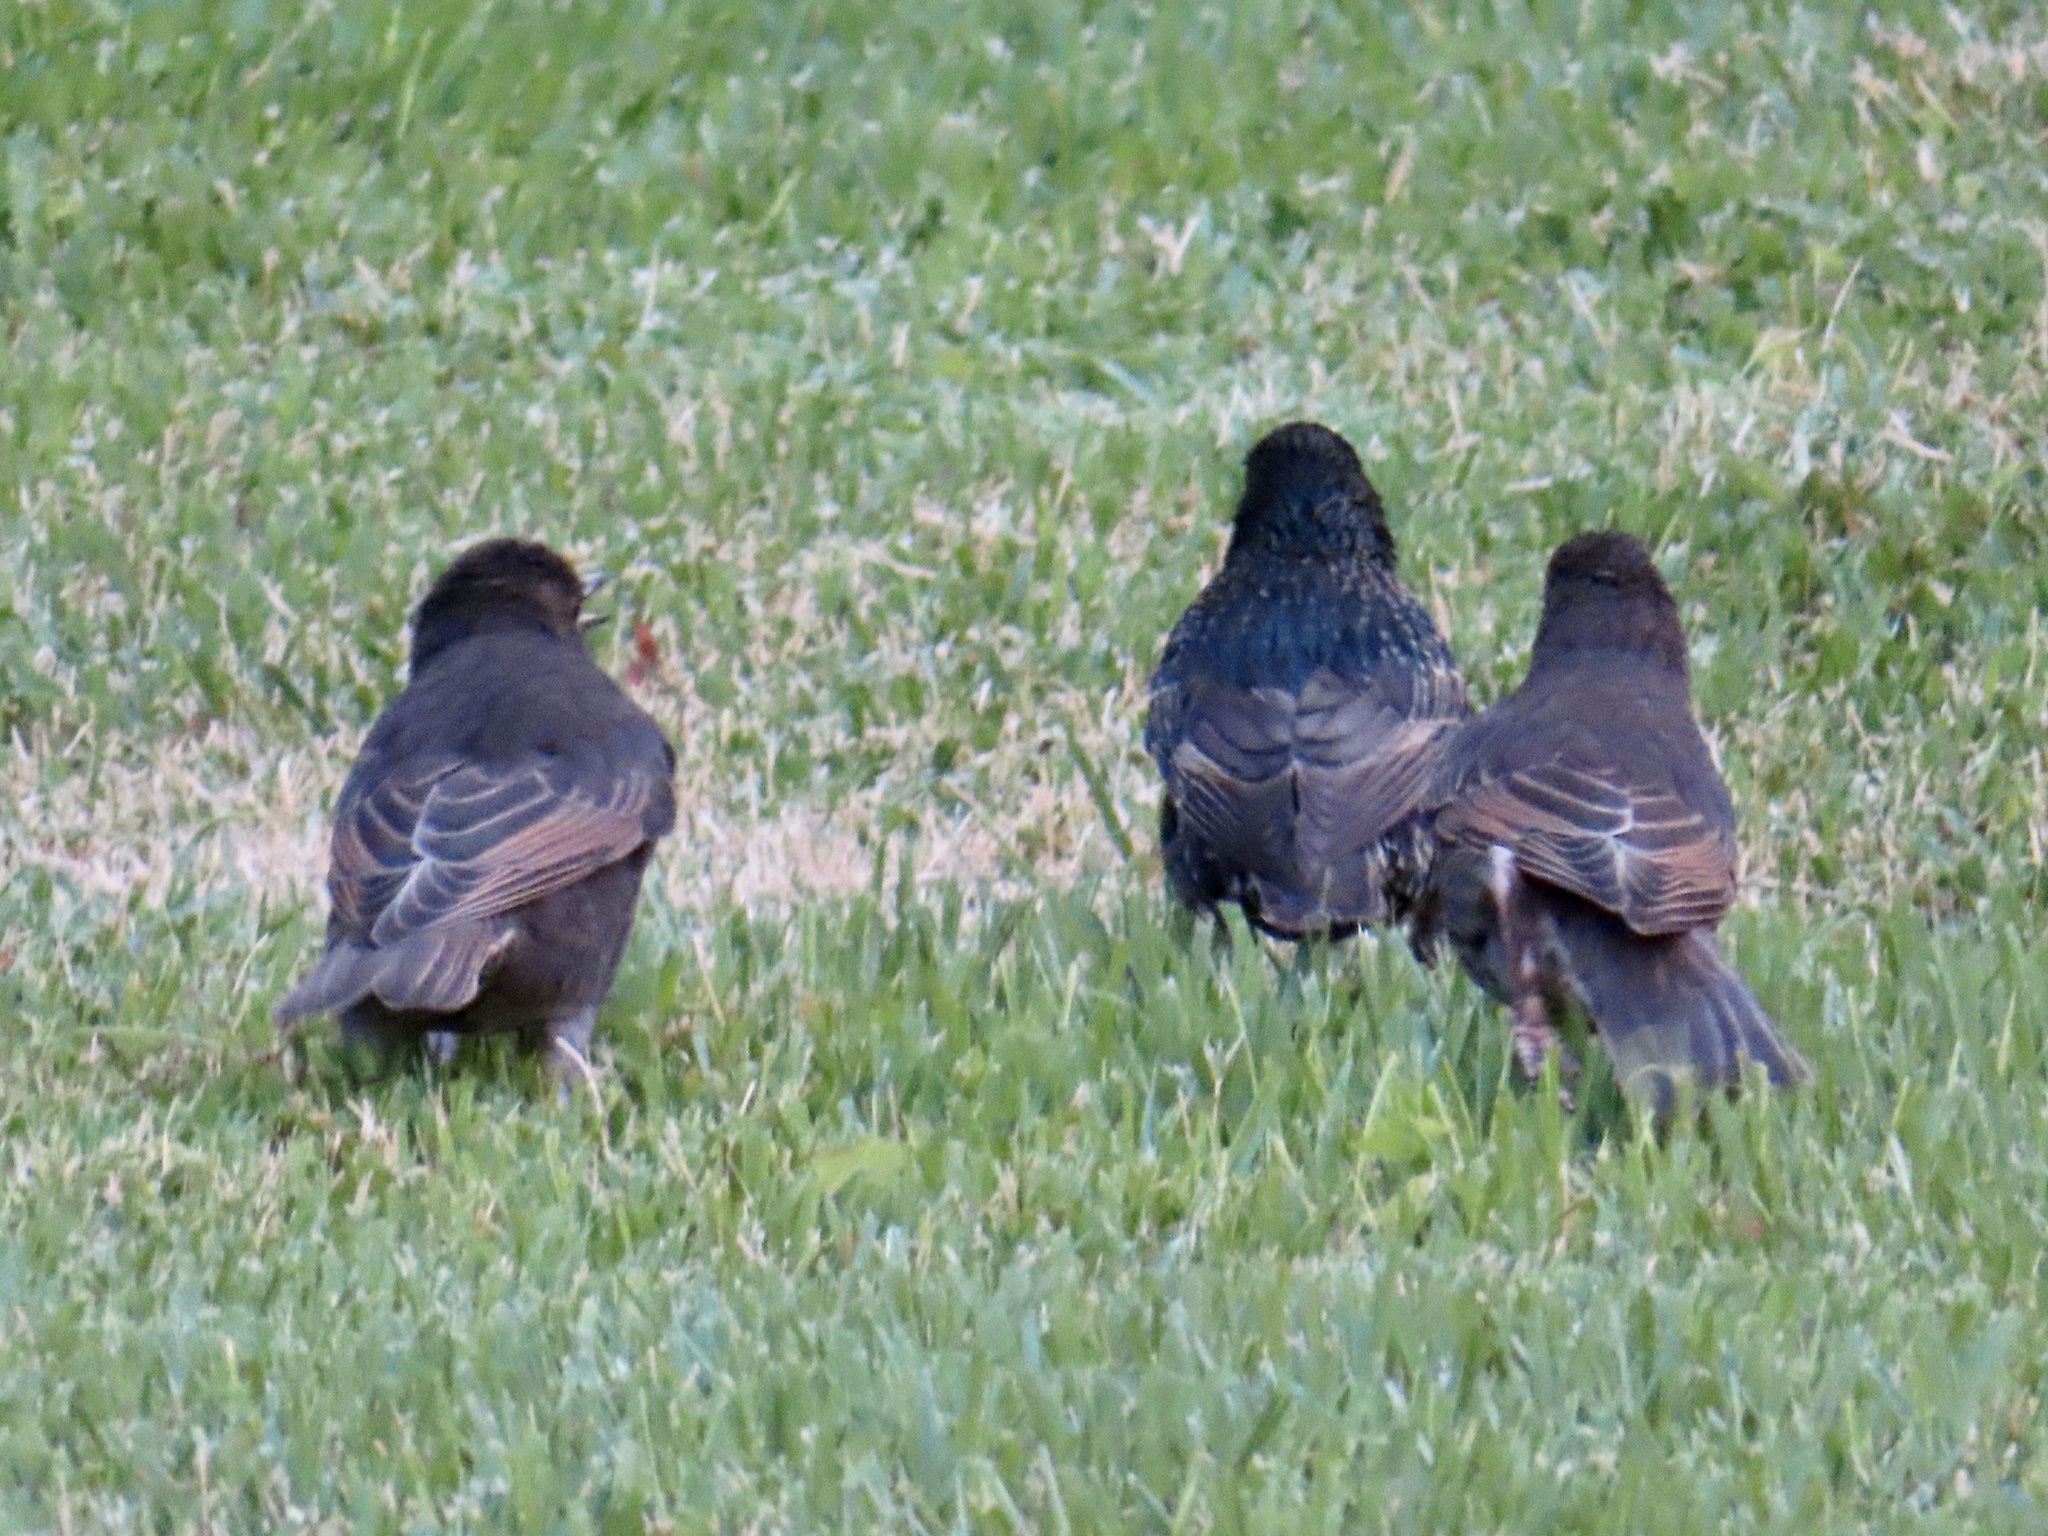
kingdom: Animalia
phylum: Chordata
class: Aves
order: Passeriformes
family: Sturnidae
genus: Sturnus
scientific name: Sturnus vulgaris
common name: Common starling
